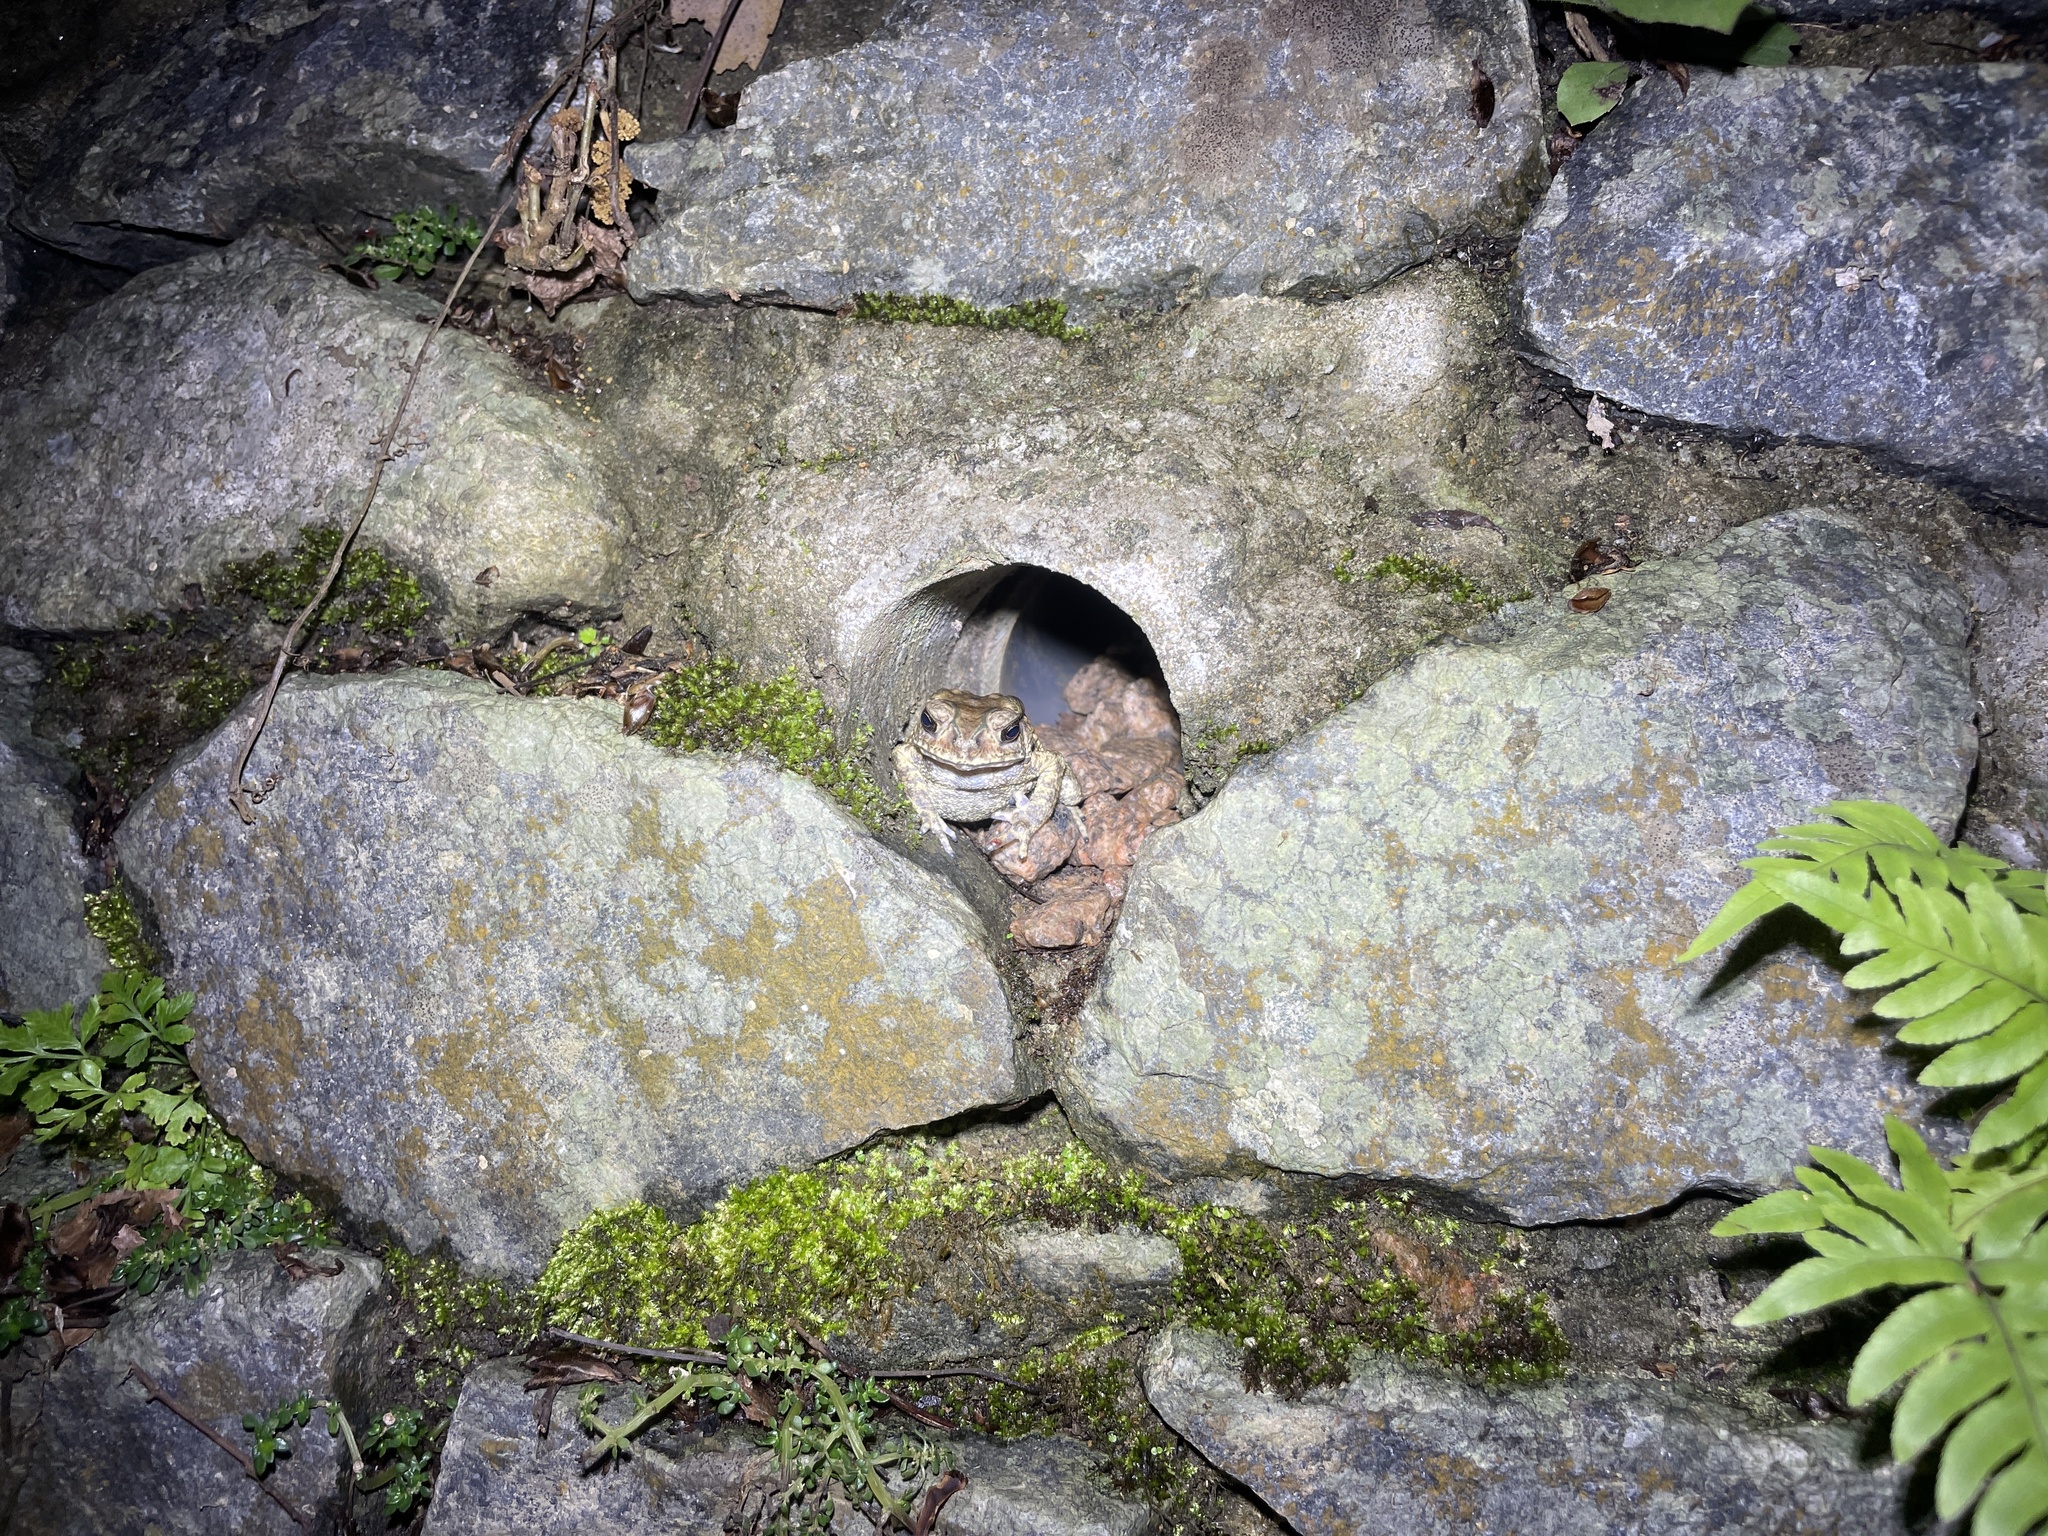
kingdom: Animalia
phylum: Chordata
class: Amphibia
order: Anura
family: Bufonidae
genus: Duttaphrynus
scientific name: Duttaphrynus melanostictus
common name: Common sunda toad
